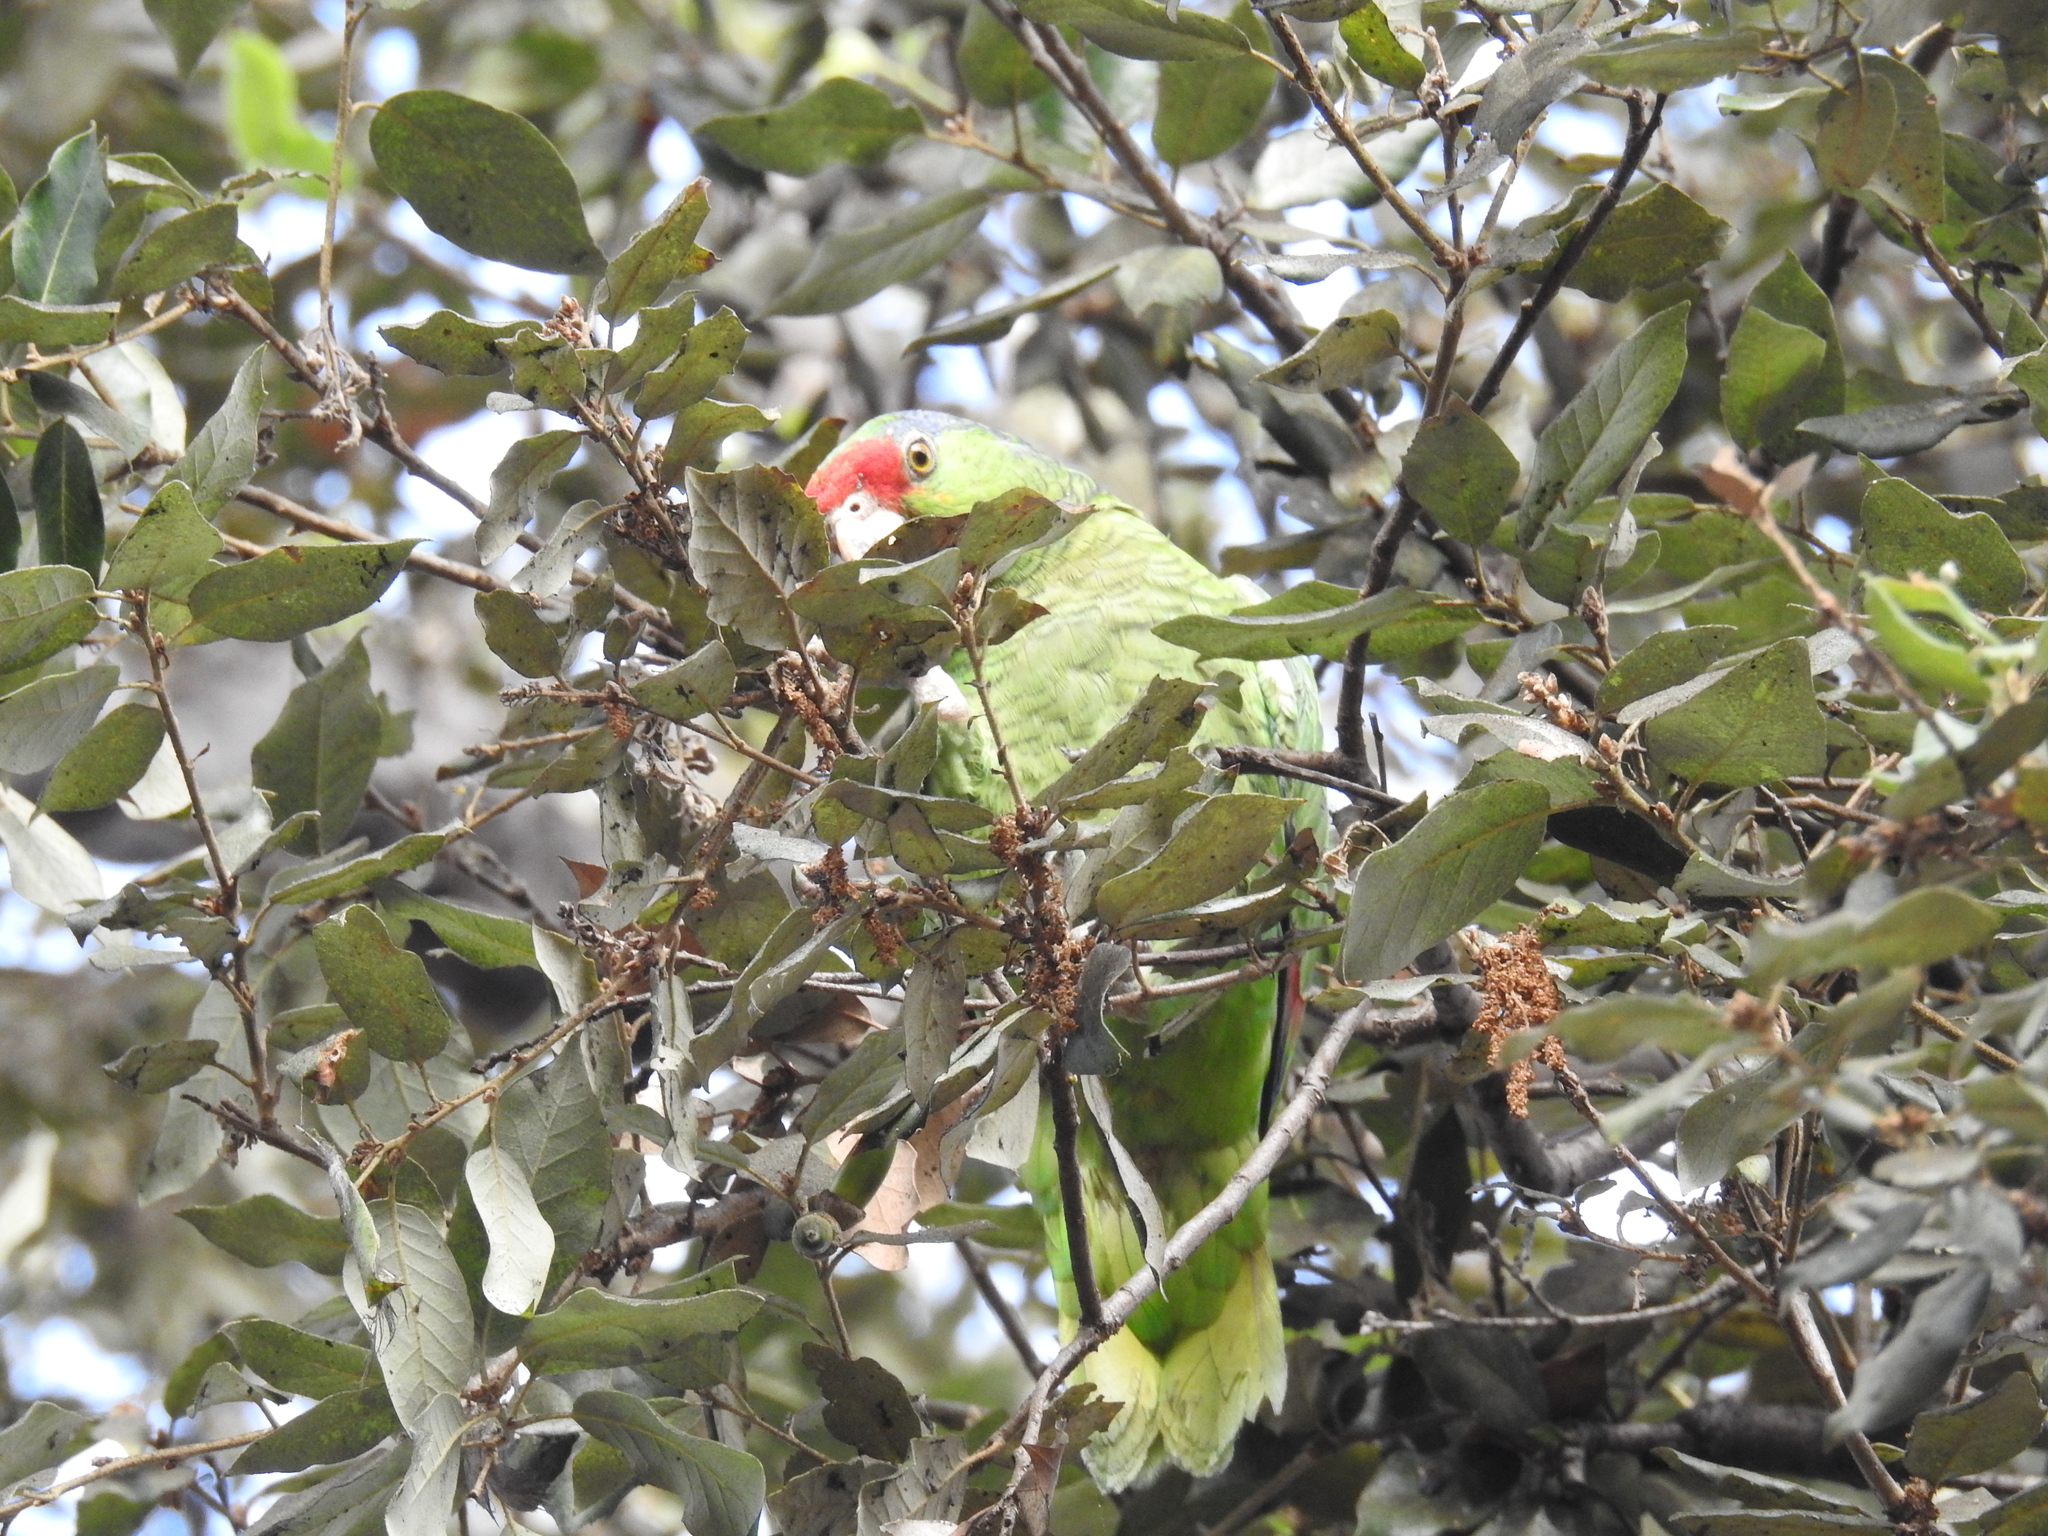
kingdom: Animalia
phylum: Chordata
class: Aves
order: Psittaciformes
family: Psittacidae
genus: Amazona
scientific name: Amazona viridigenalis
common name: Red-crowned amazon
